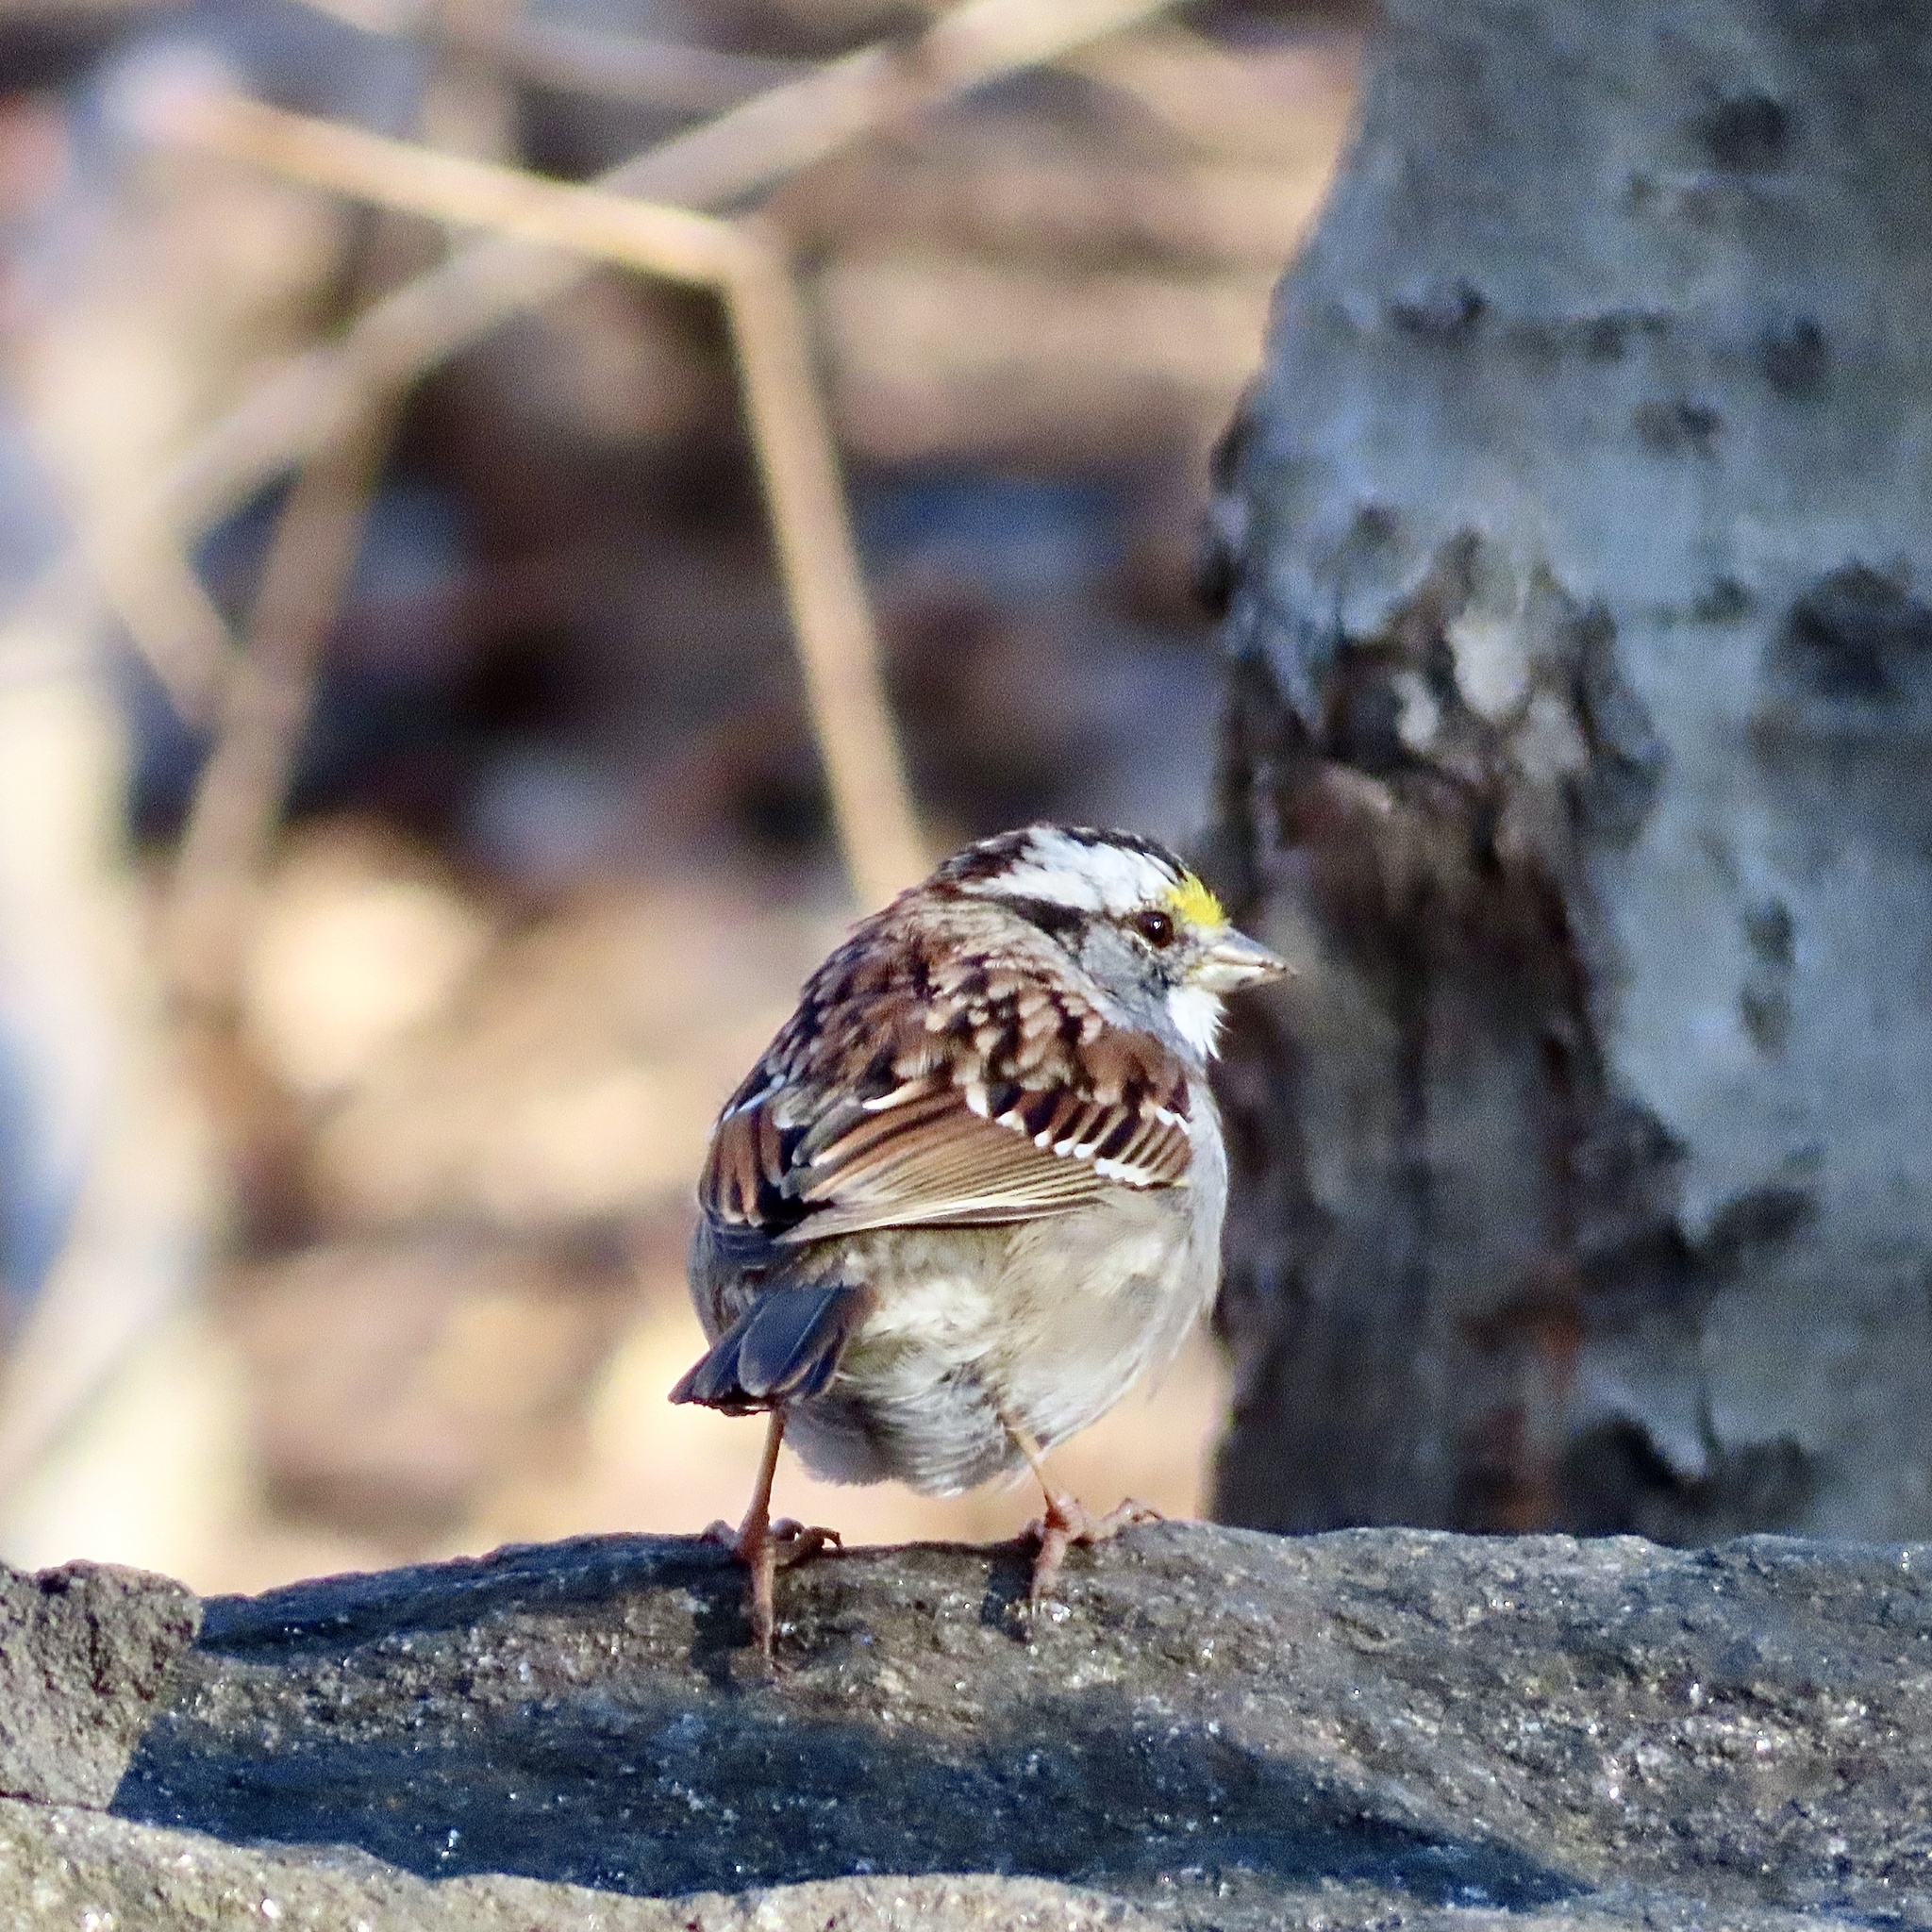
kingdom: Animalia
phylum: Chordata
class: Aves
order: Passeriformes
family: Passerellidae
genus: Zonotrichia
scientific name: Zonotrichia albicollis
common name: White-throated sparrow
